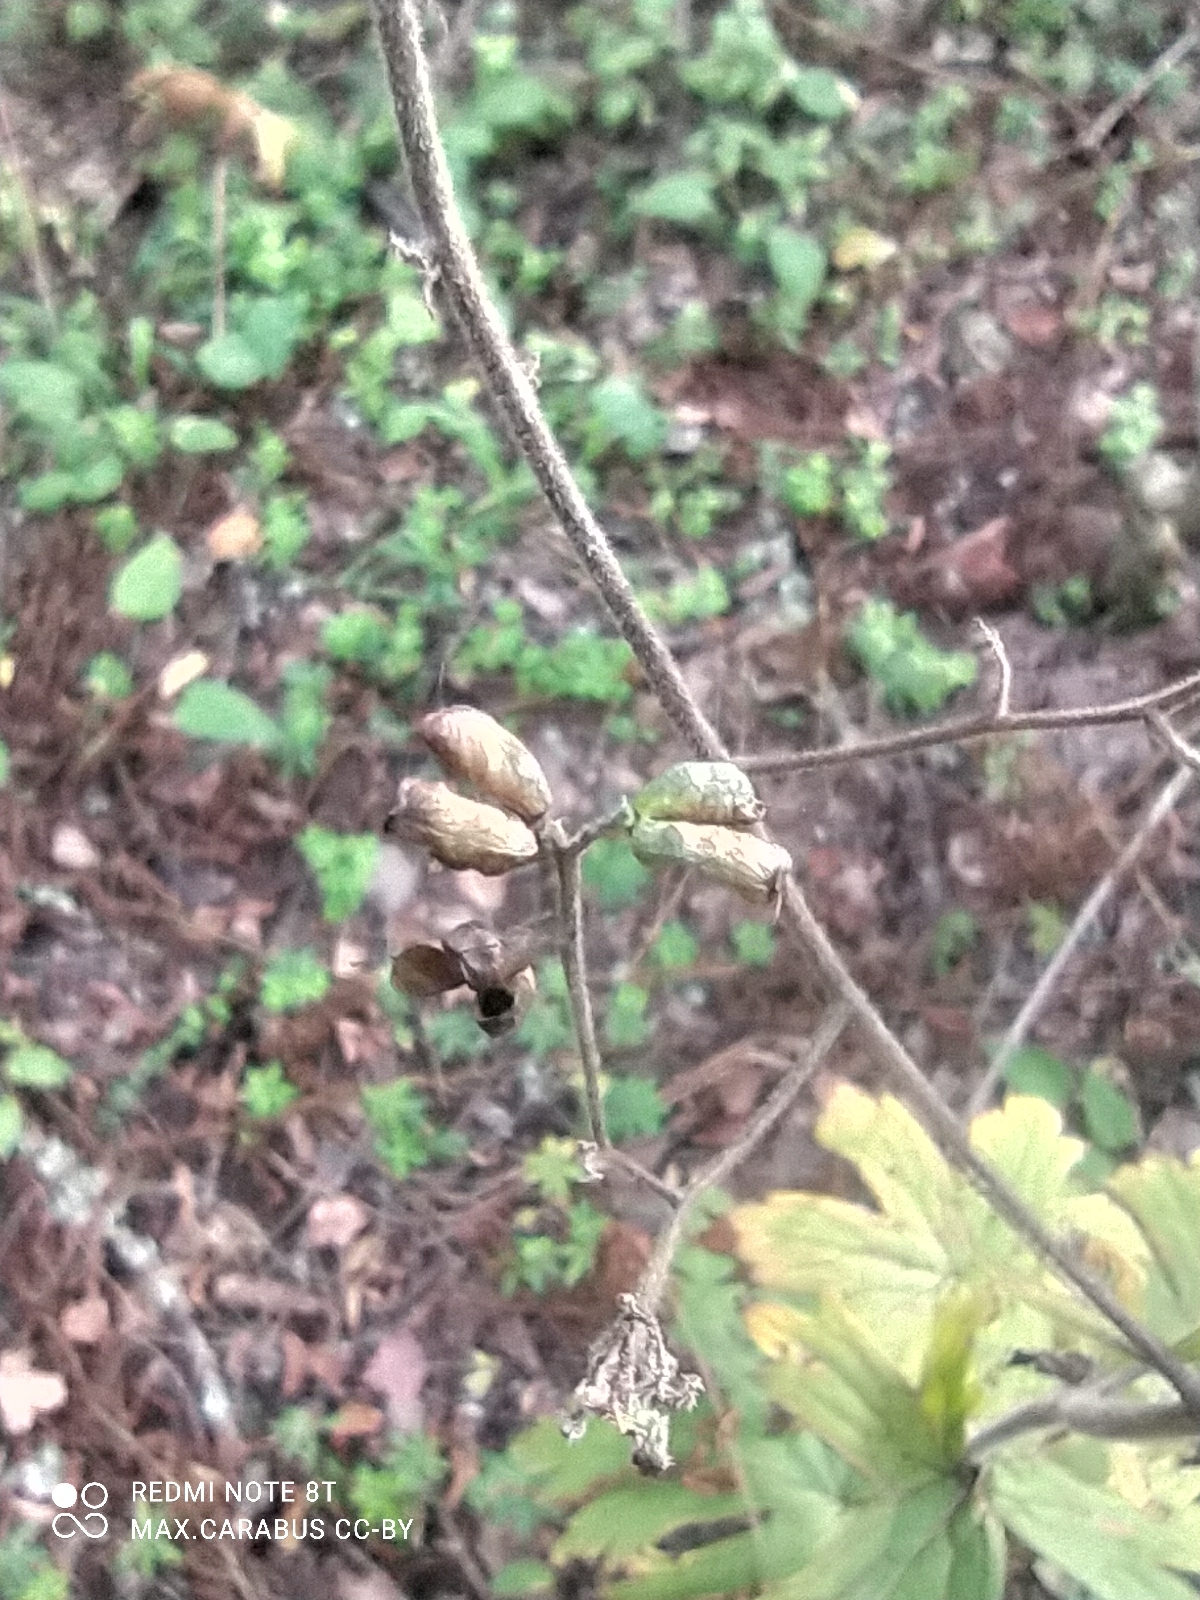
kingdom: Plantae
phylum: Tracheophyta
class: Magnoliopsida
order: Ranunculales
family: Ranunculaceae
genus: Aconitum
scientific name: Aconitum septentrionale
